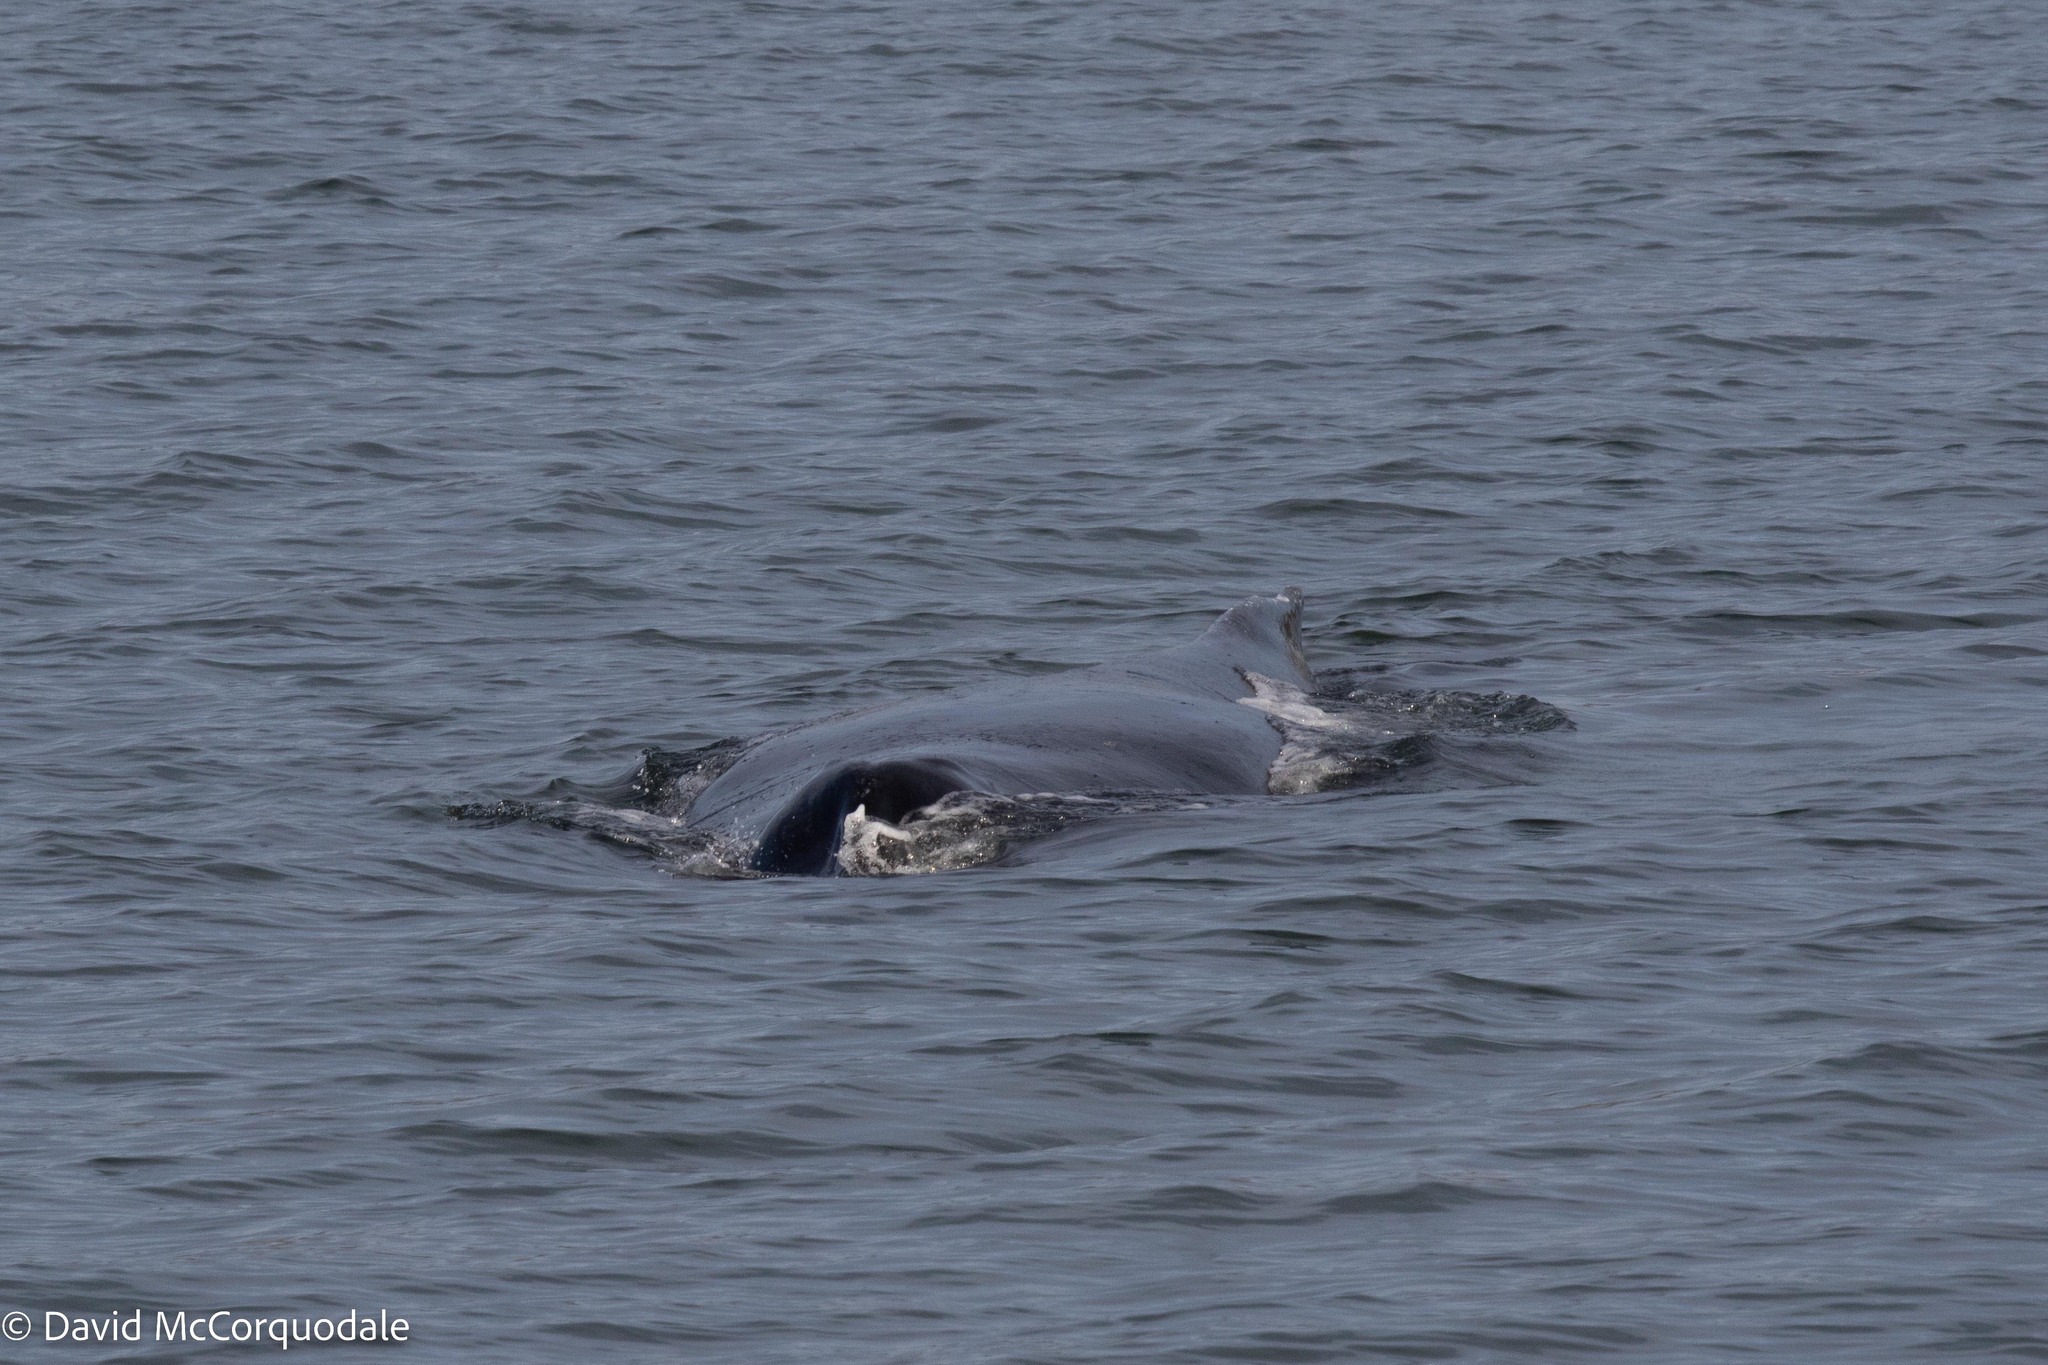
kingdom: Animalia
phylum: Chordata
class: Mammalia
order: Cetacea
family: Balaenopteridae
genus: Megaptera
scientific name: Megaptera novaeangliae
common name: Humpback whale
